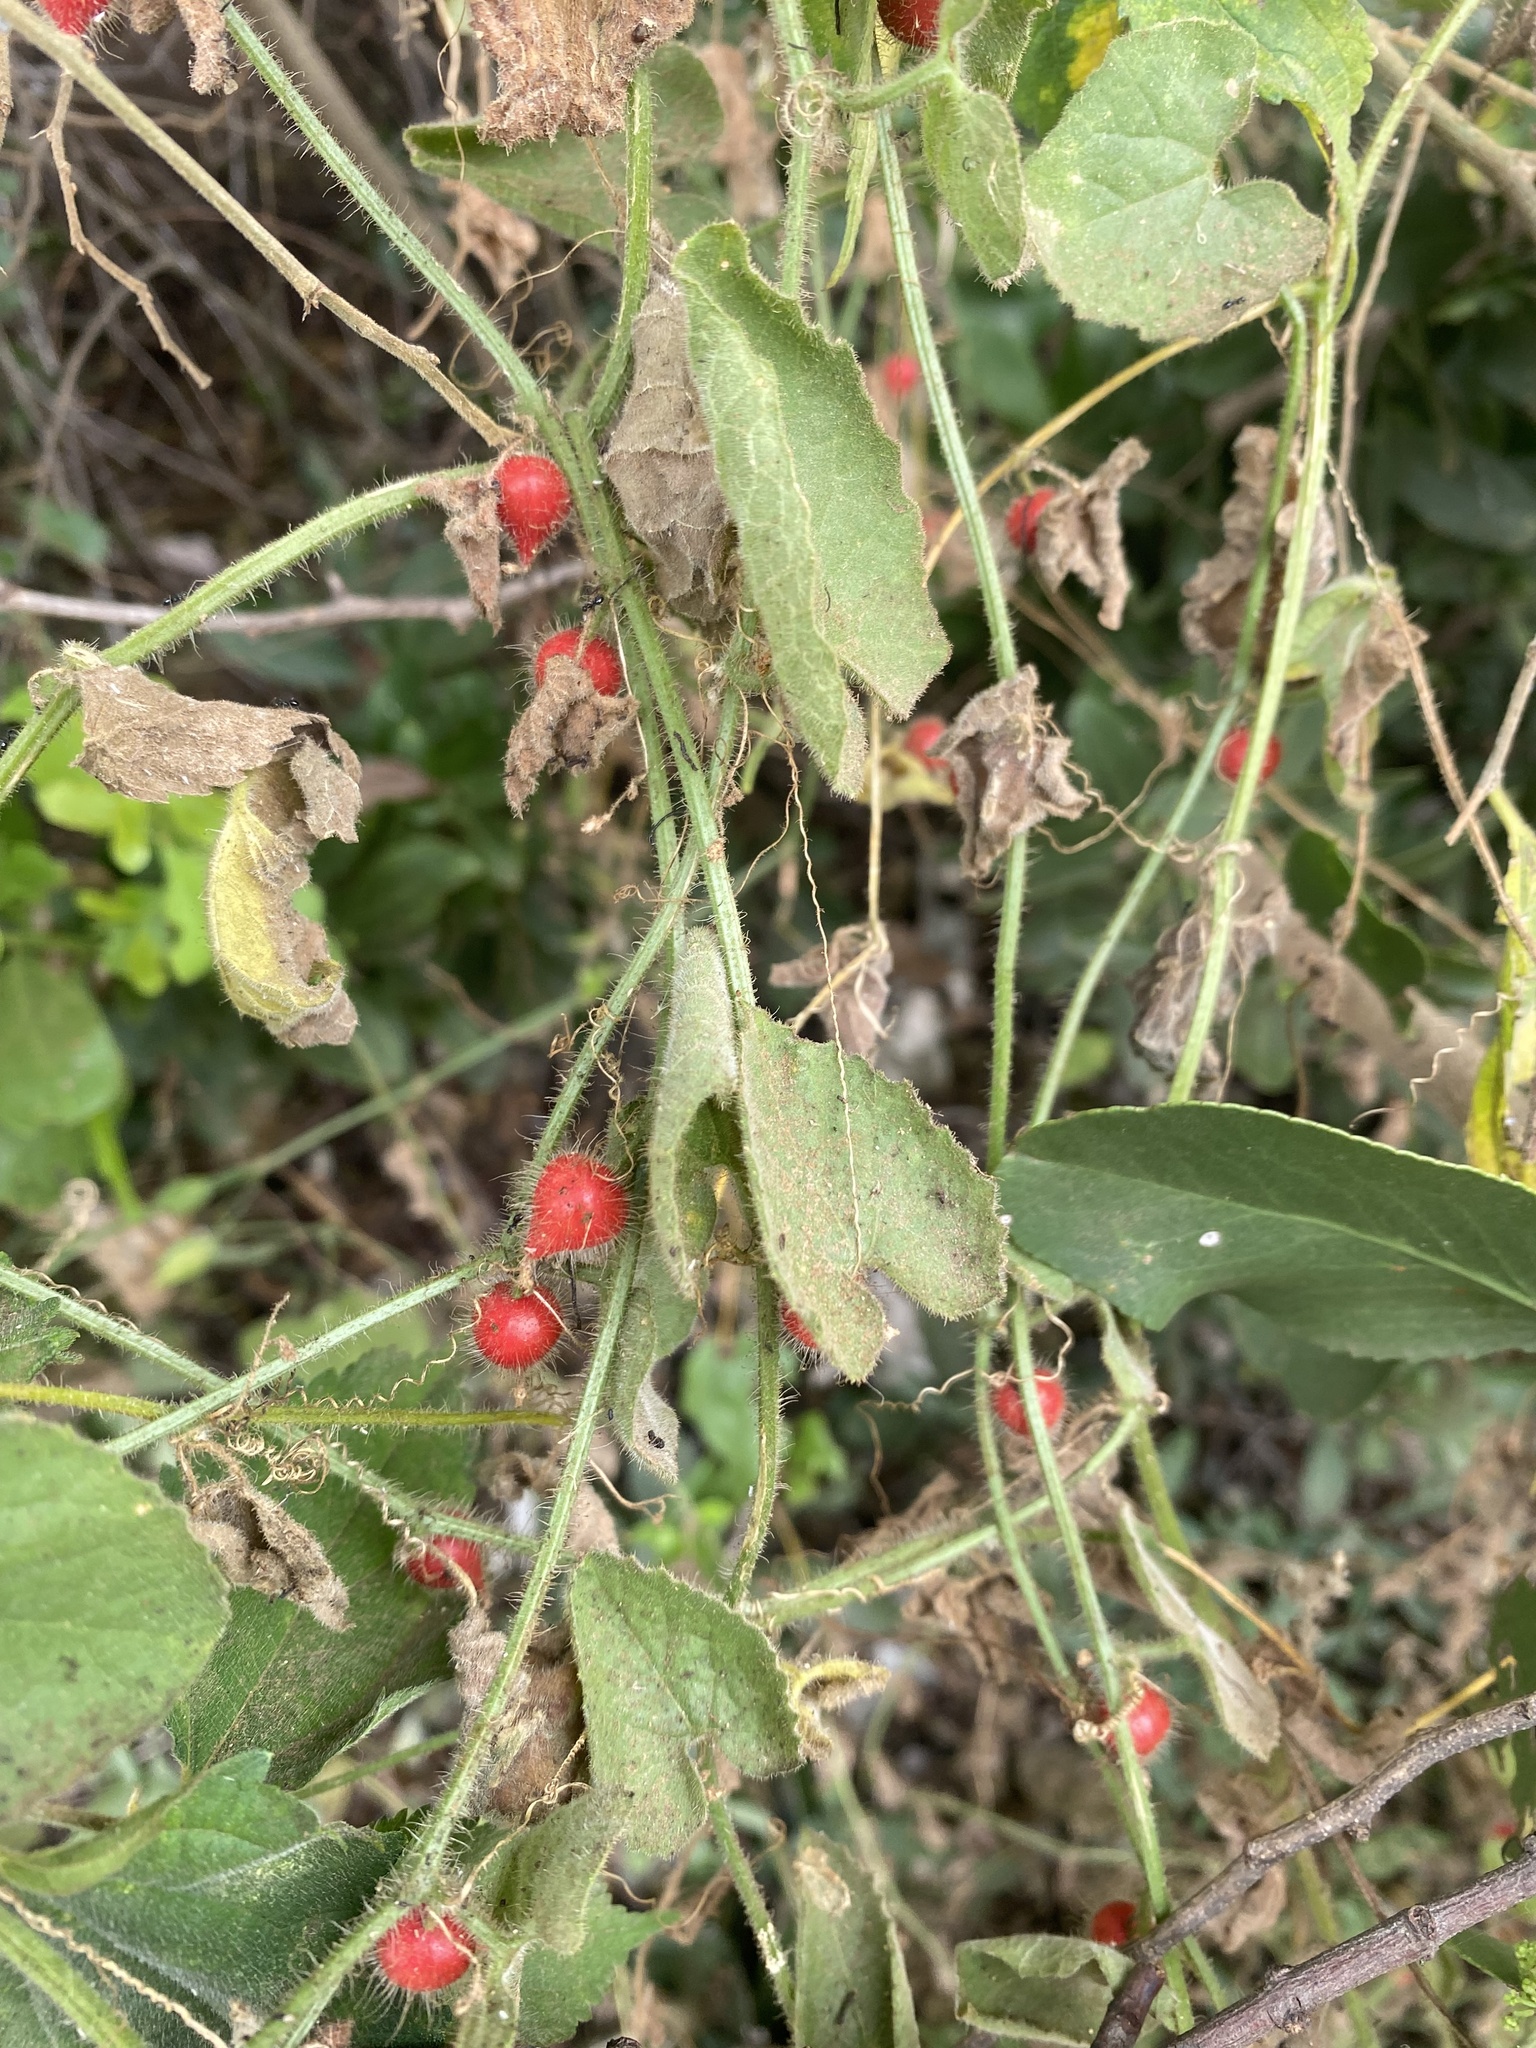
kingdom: Plantae
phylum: Tracheophyta
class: Magnoliopsida
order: Cucurbitales
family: Cucurbitaceae
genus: Cucumis
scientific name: Cucumis maderaspatanus
